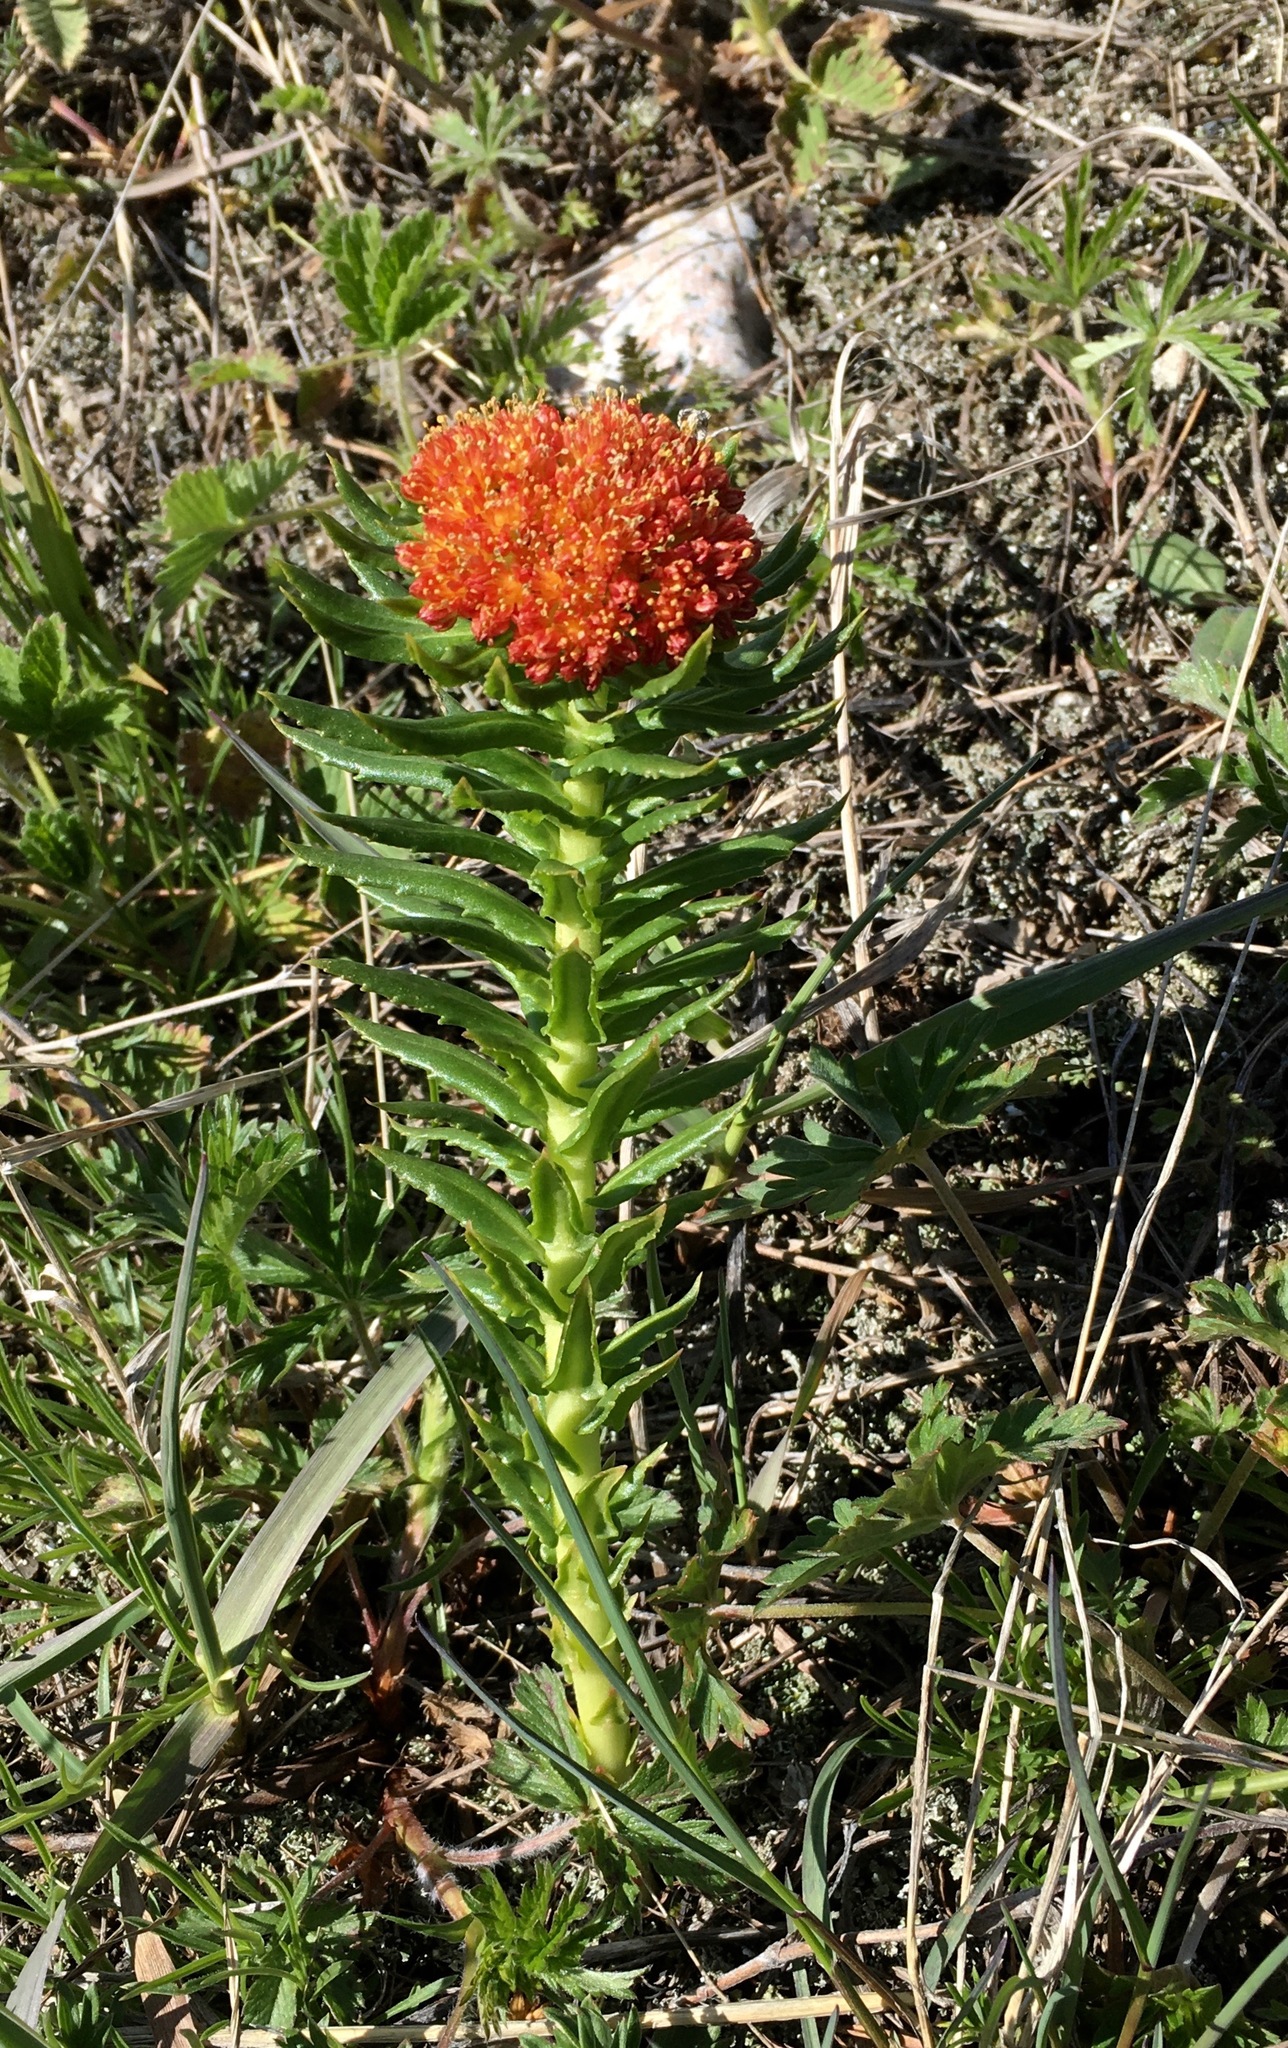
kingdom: Plantae
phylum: Tracheophyta
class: Magnoliopsida
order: Saxifragales
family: Crassulaceae
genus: Rhodiola
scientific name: Rhodiola kirilowii
